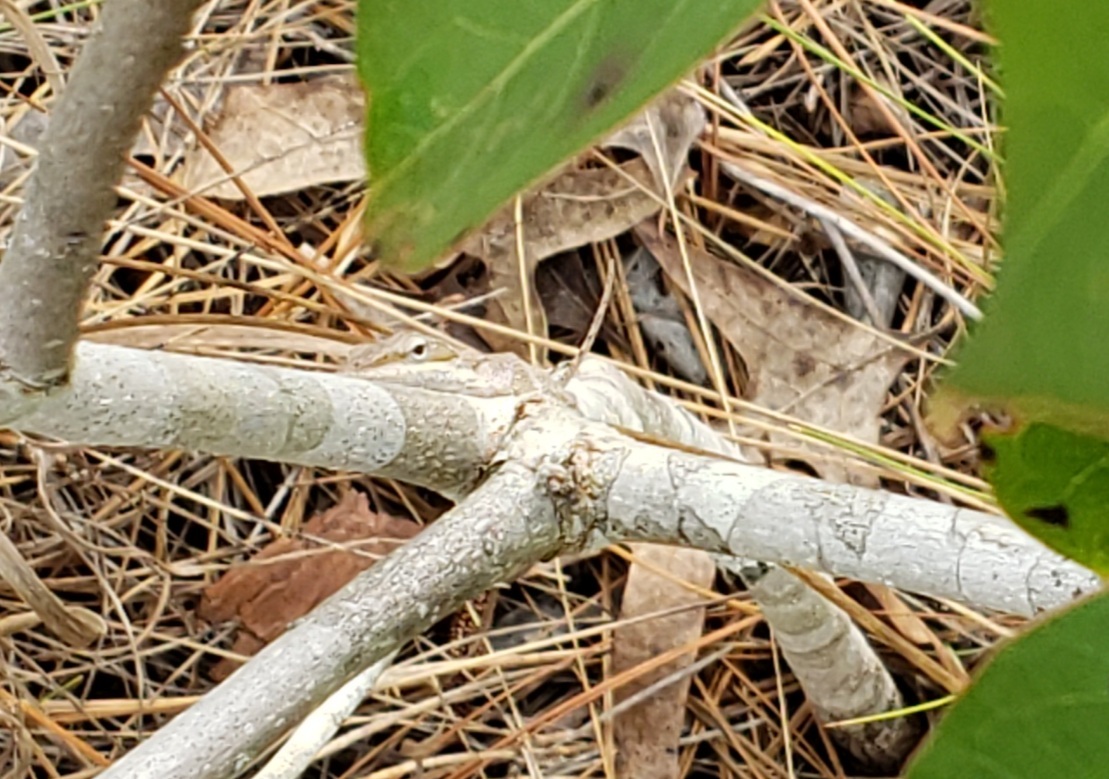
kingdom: Animalia
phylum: Chordata
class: Squamata
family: Dactyloidae
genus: Anolis
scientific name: Anolis carolinensis
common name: Green anole
